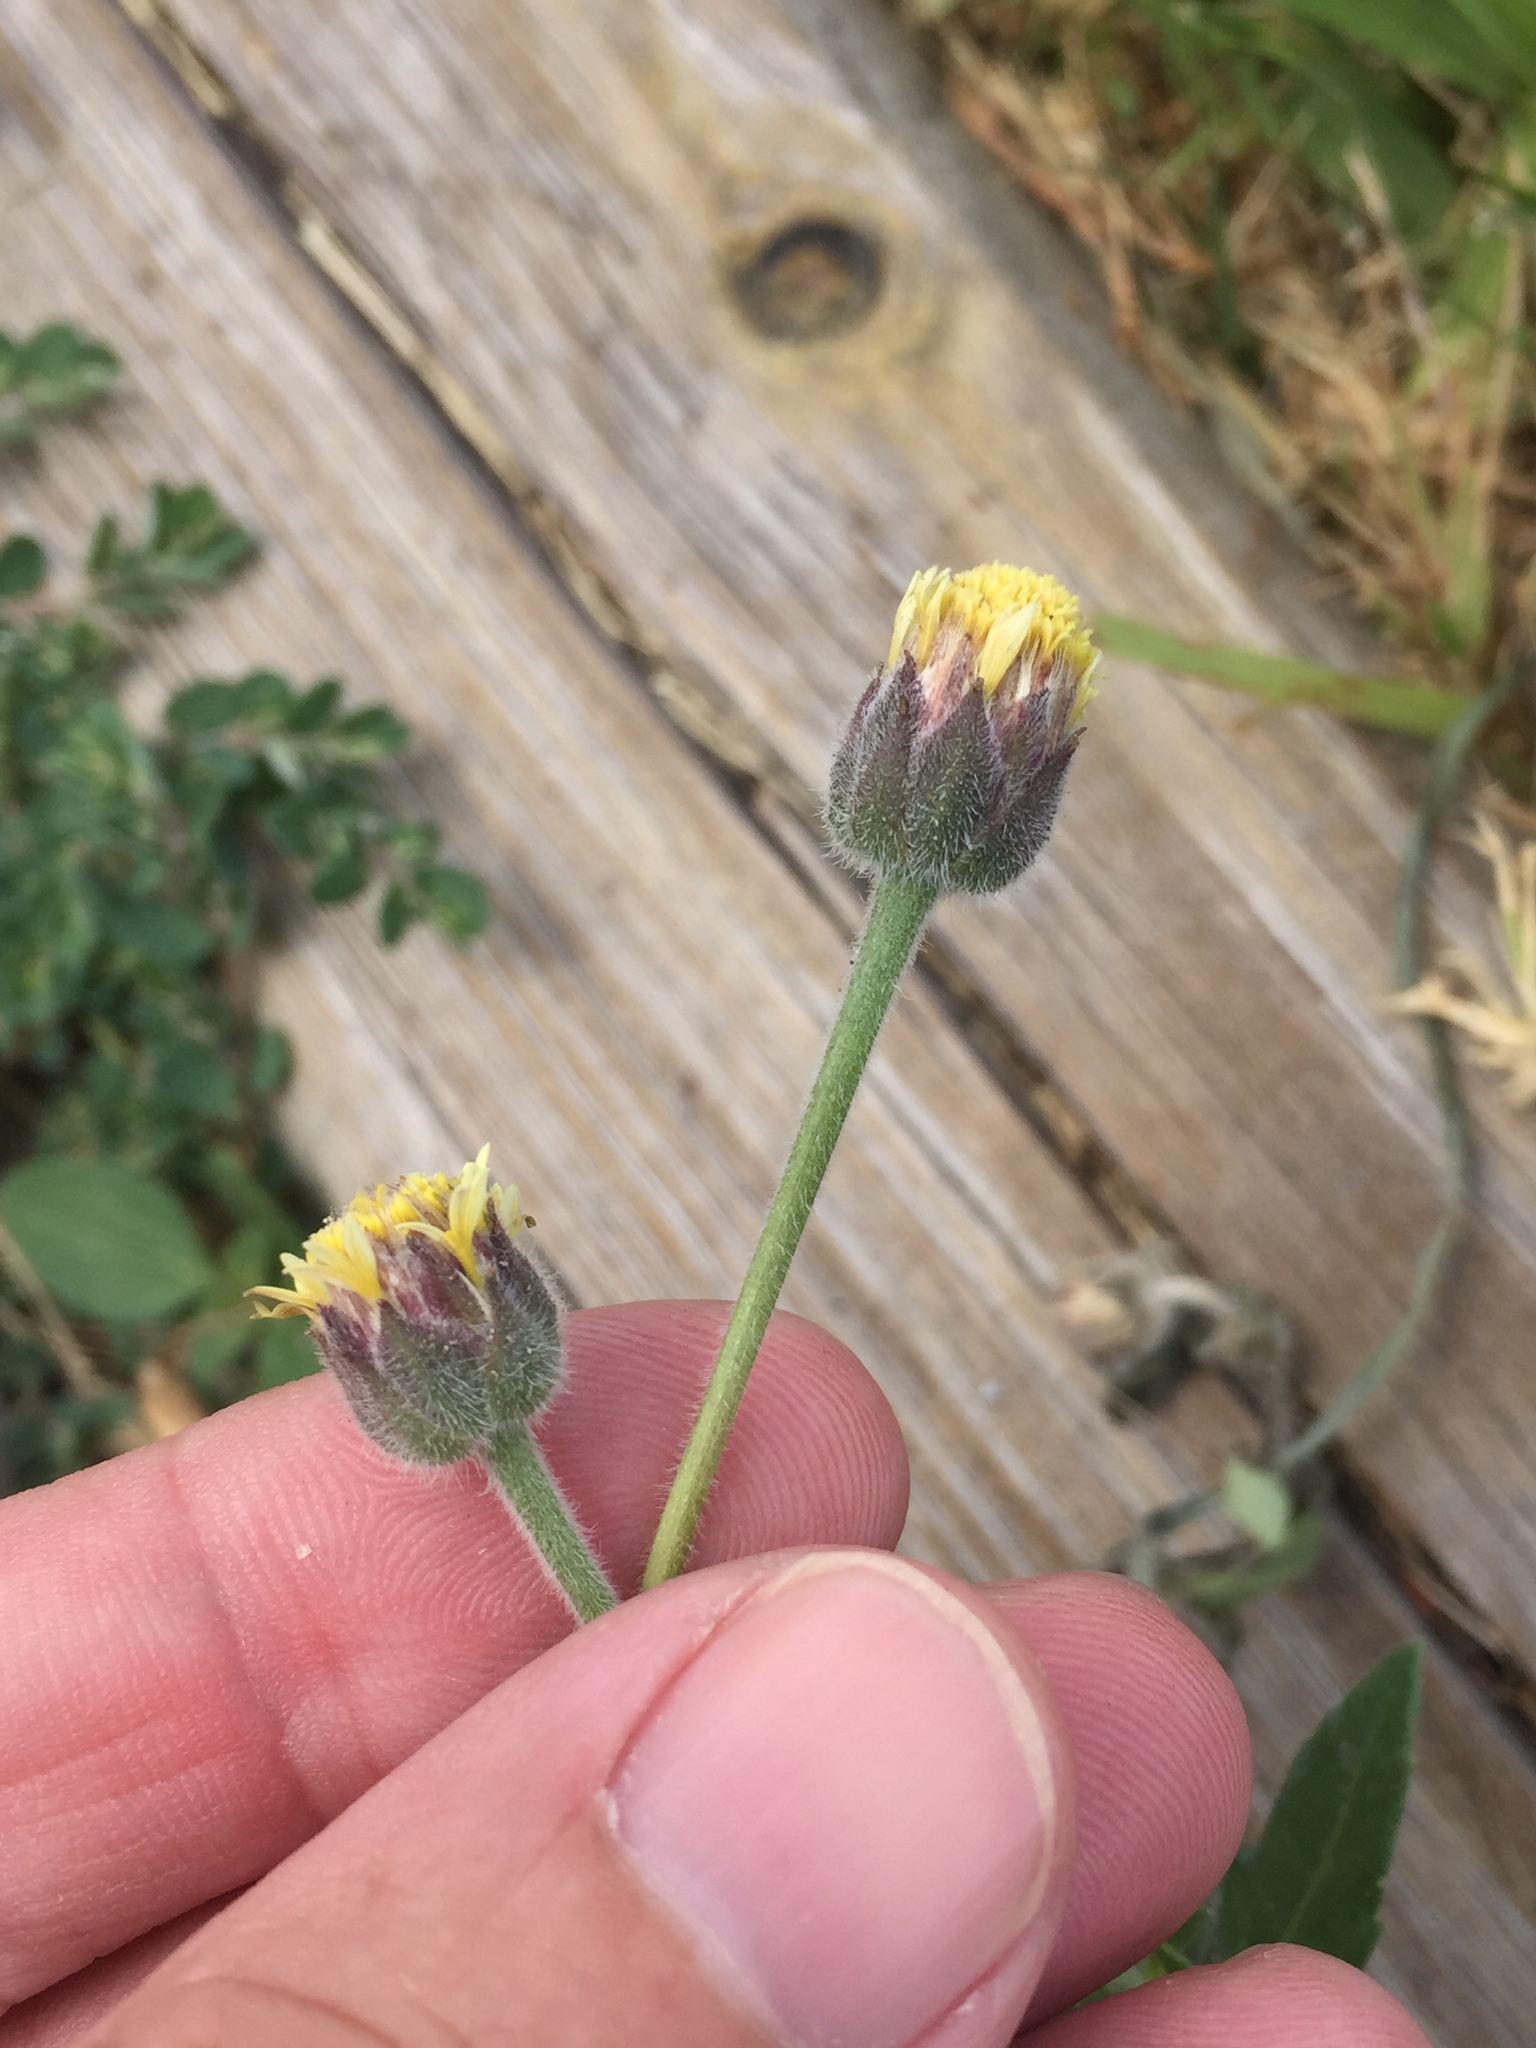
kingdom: Plantae
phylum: Tracheophyta
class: Magnoliopsida
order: Asterales
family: Asteraceae
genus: Tridax
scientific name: Tridax procumbens
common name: Coatbuttons
